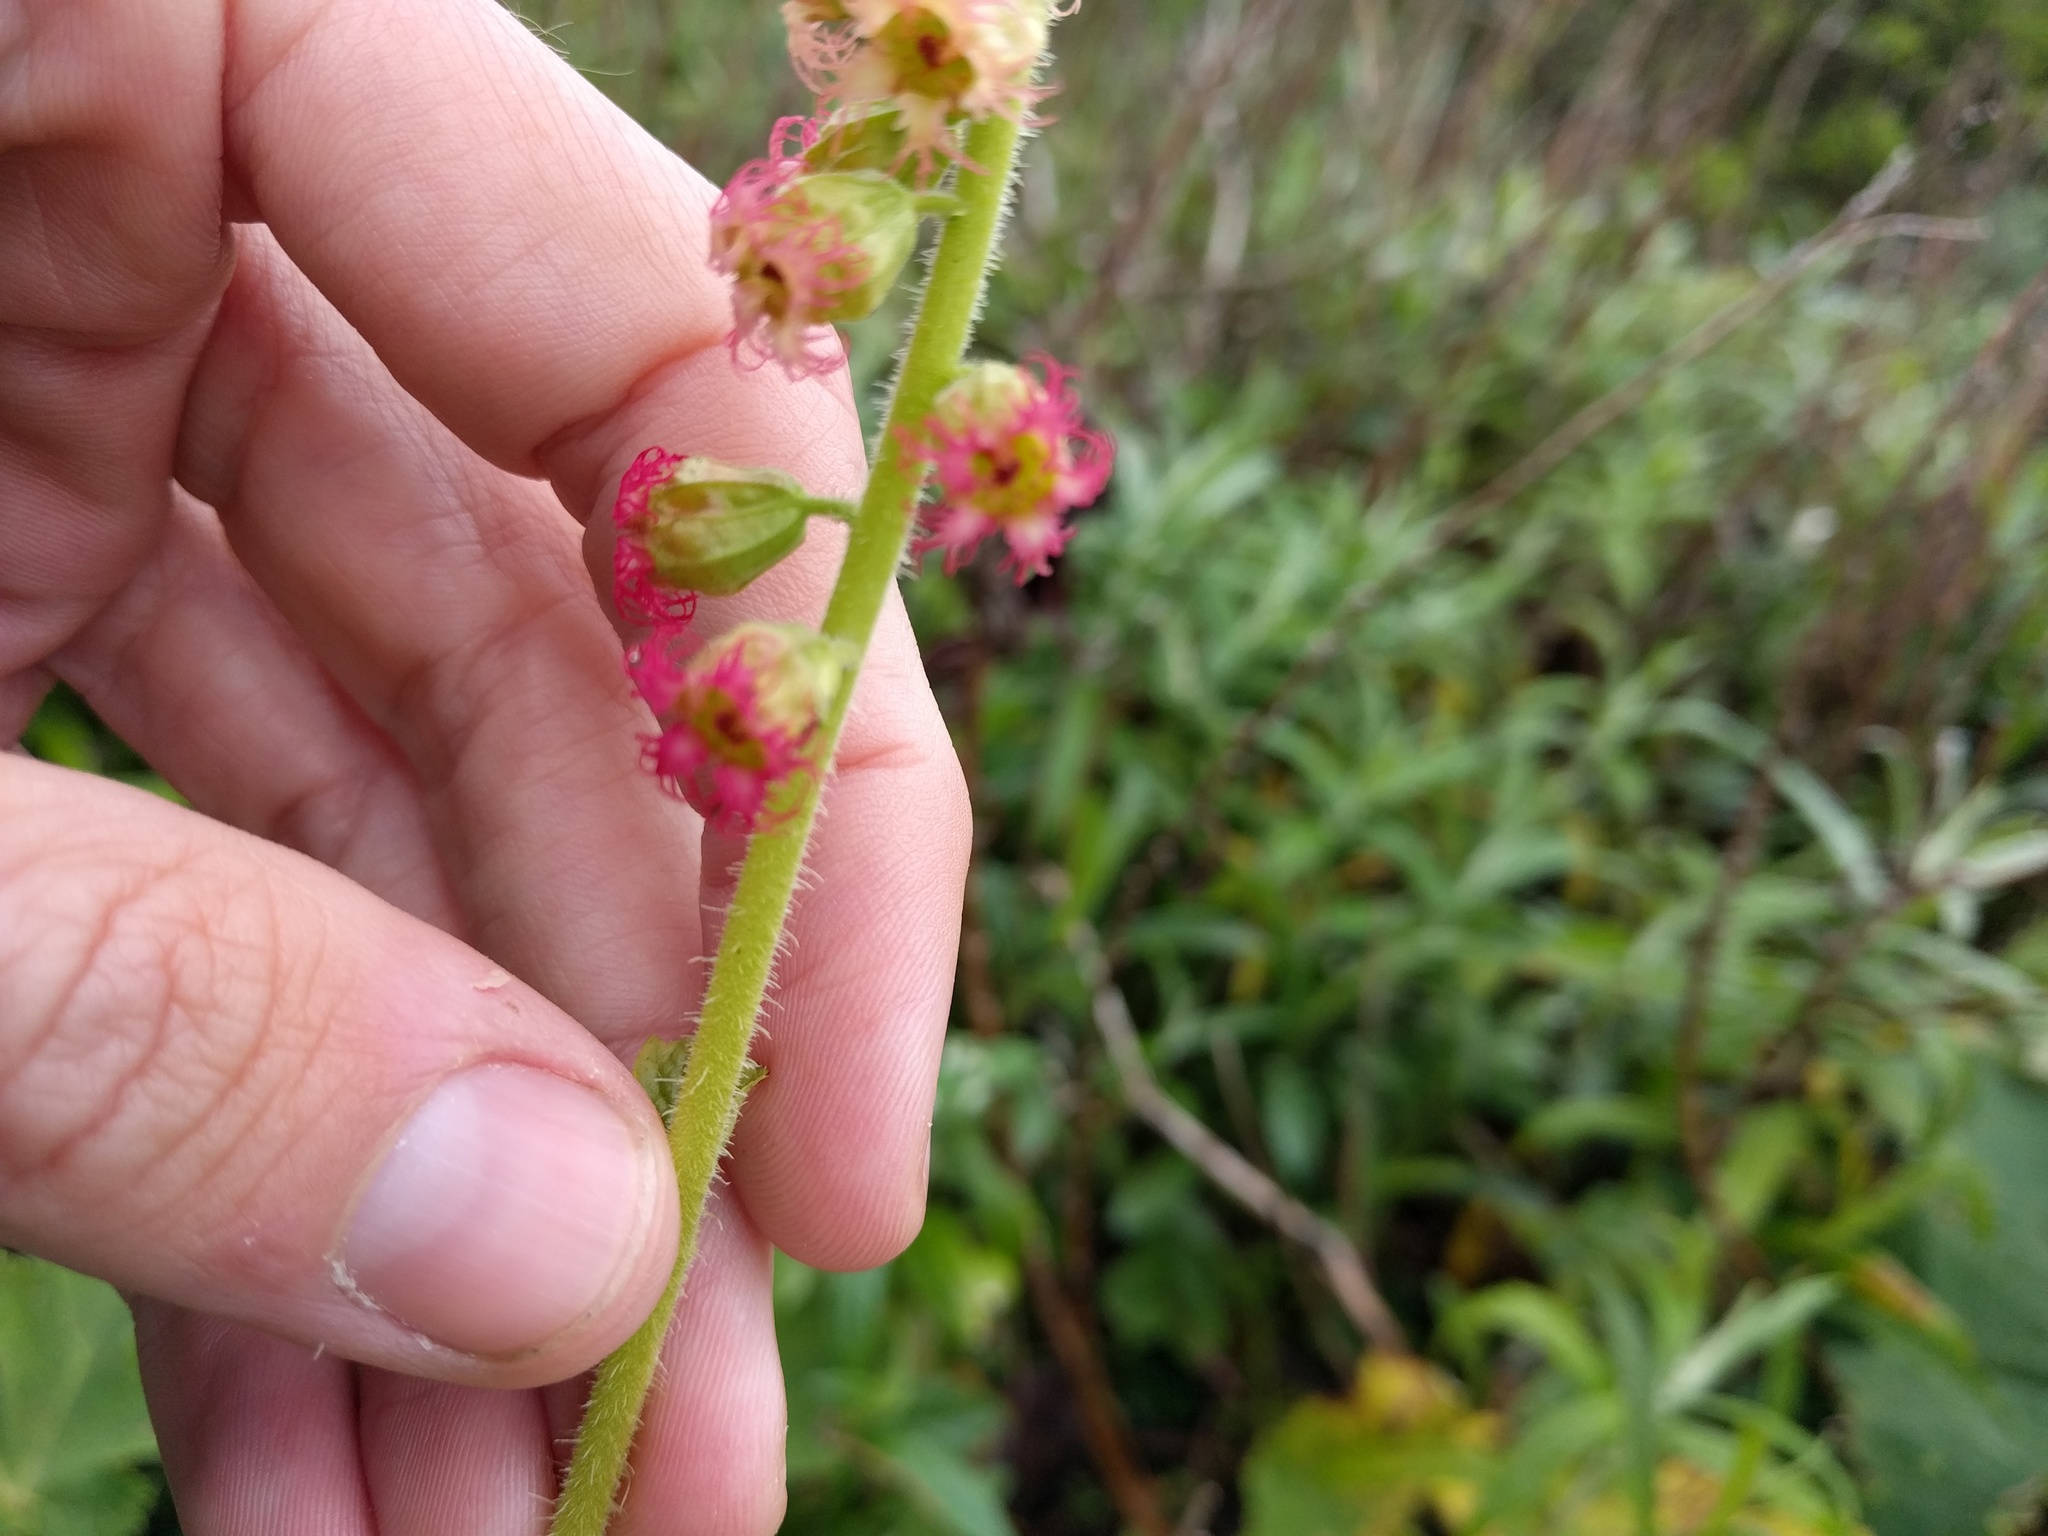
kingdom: Plantae
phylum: Tracheophyta
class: Magnoliopsida
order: Saxifragales
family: Saxifragaceae
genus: Tellima
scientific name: Tellima grandiflora
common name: Fringecups
